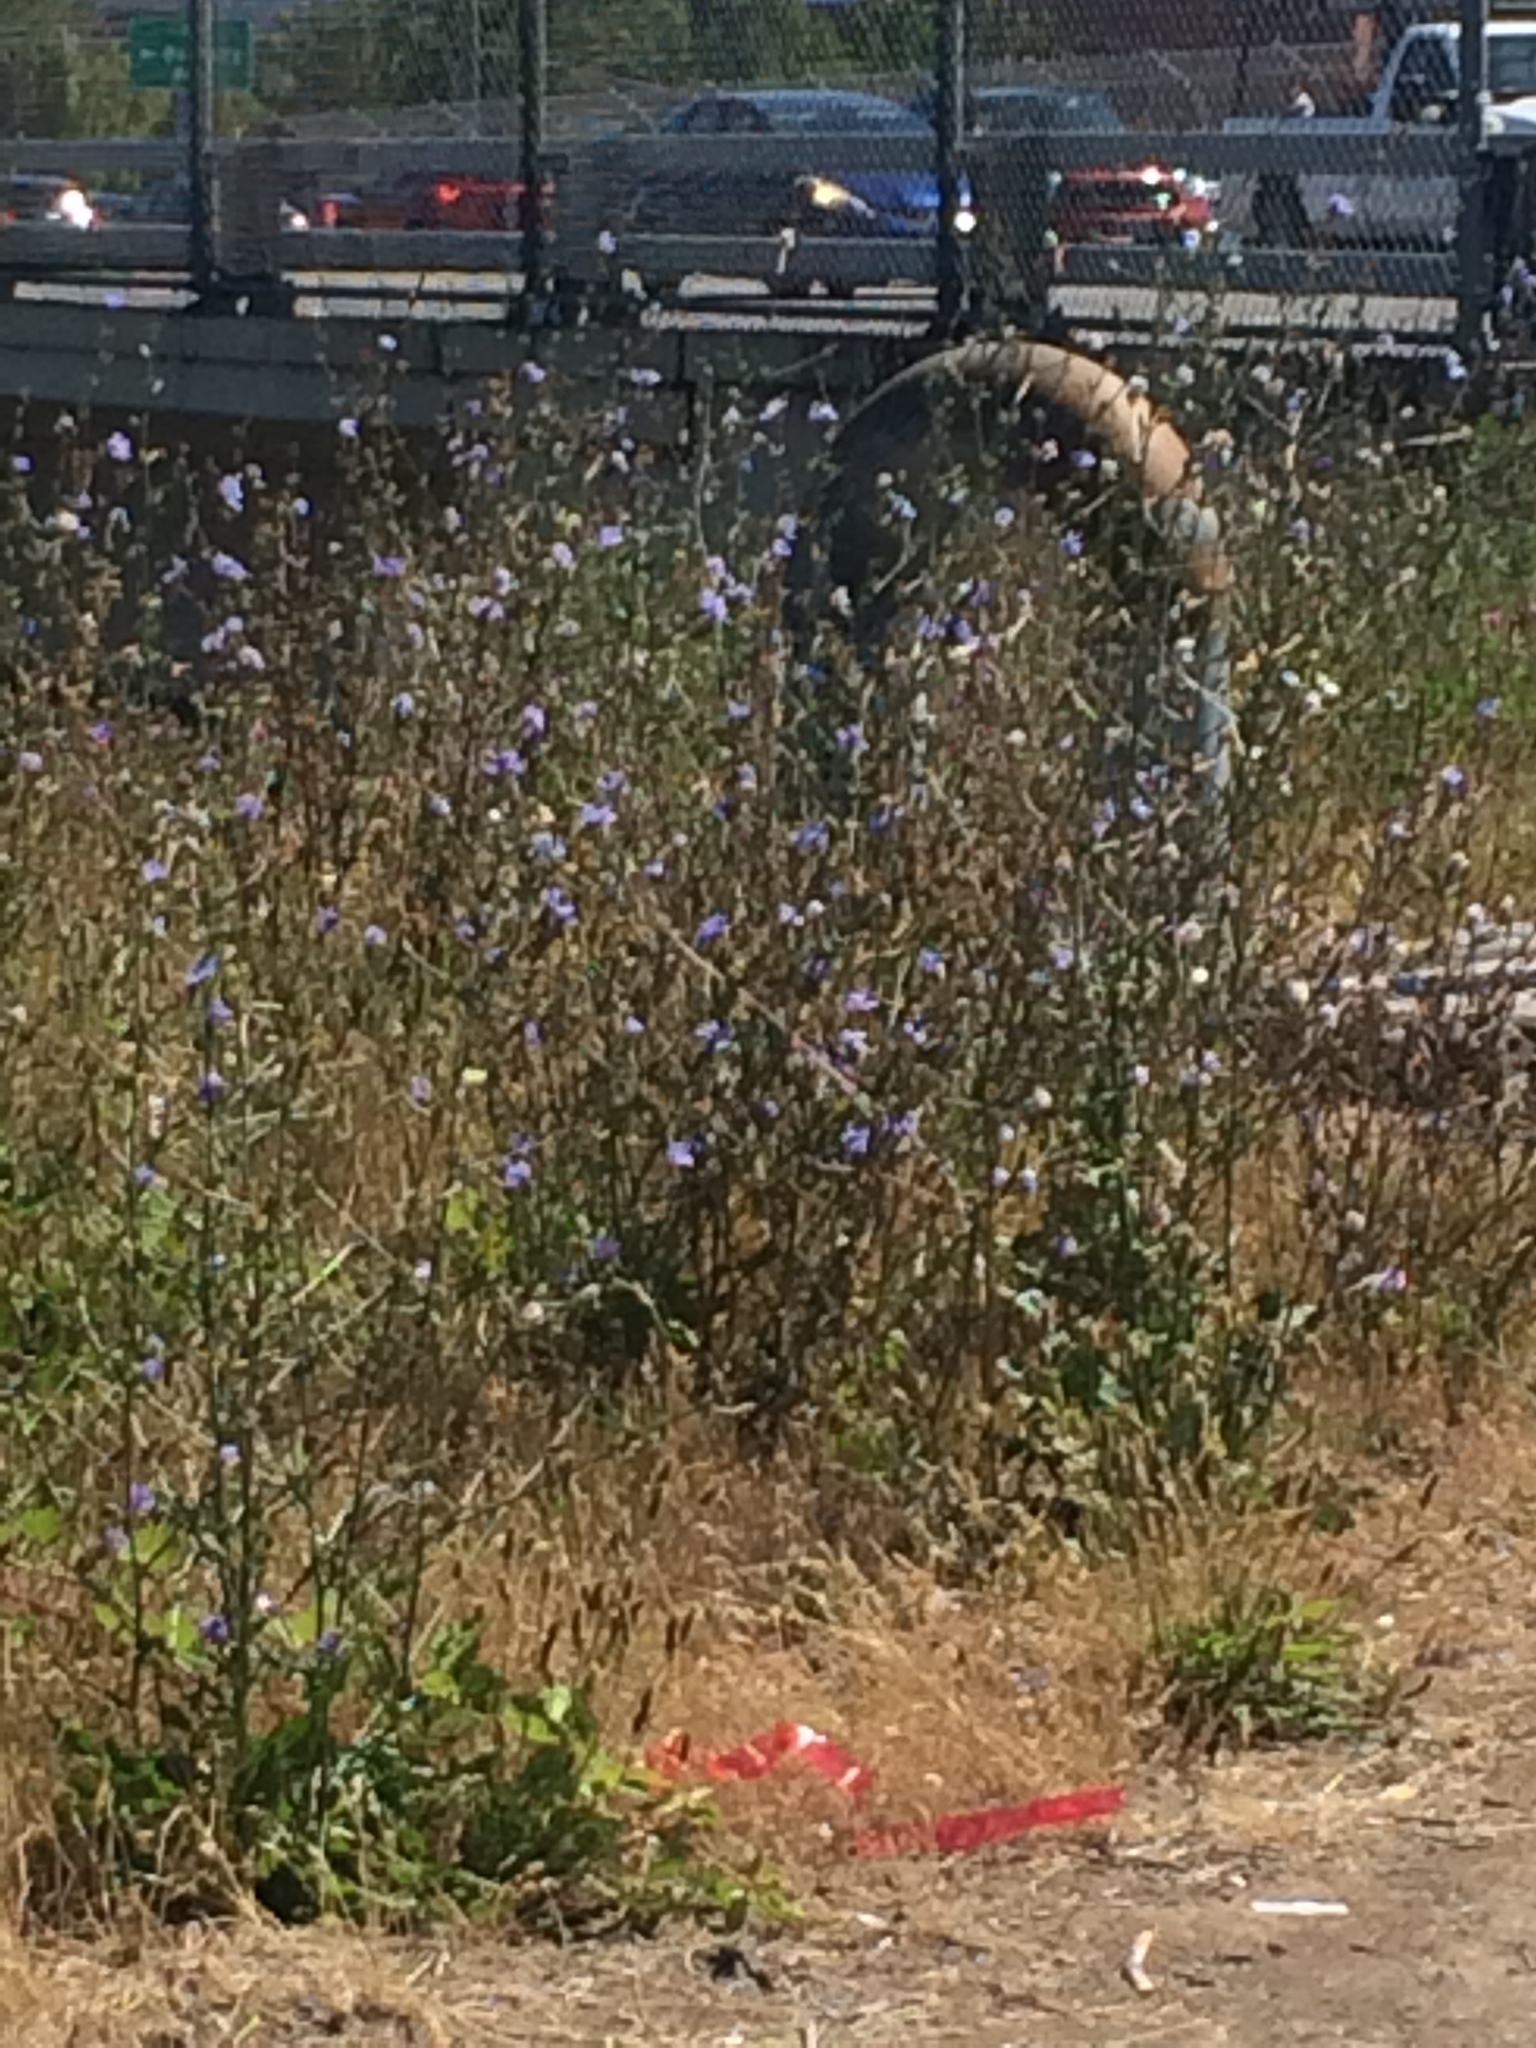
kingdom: Plantae
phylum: Tracheophyta
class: Magnoliopsida
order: Asterales
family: Asteraceae
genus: Cichorium
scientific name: Cichorium intybus
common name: Chicory
